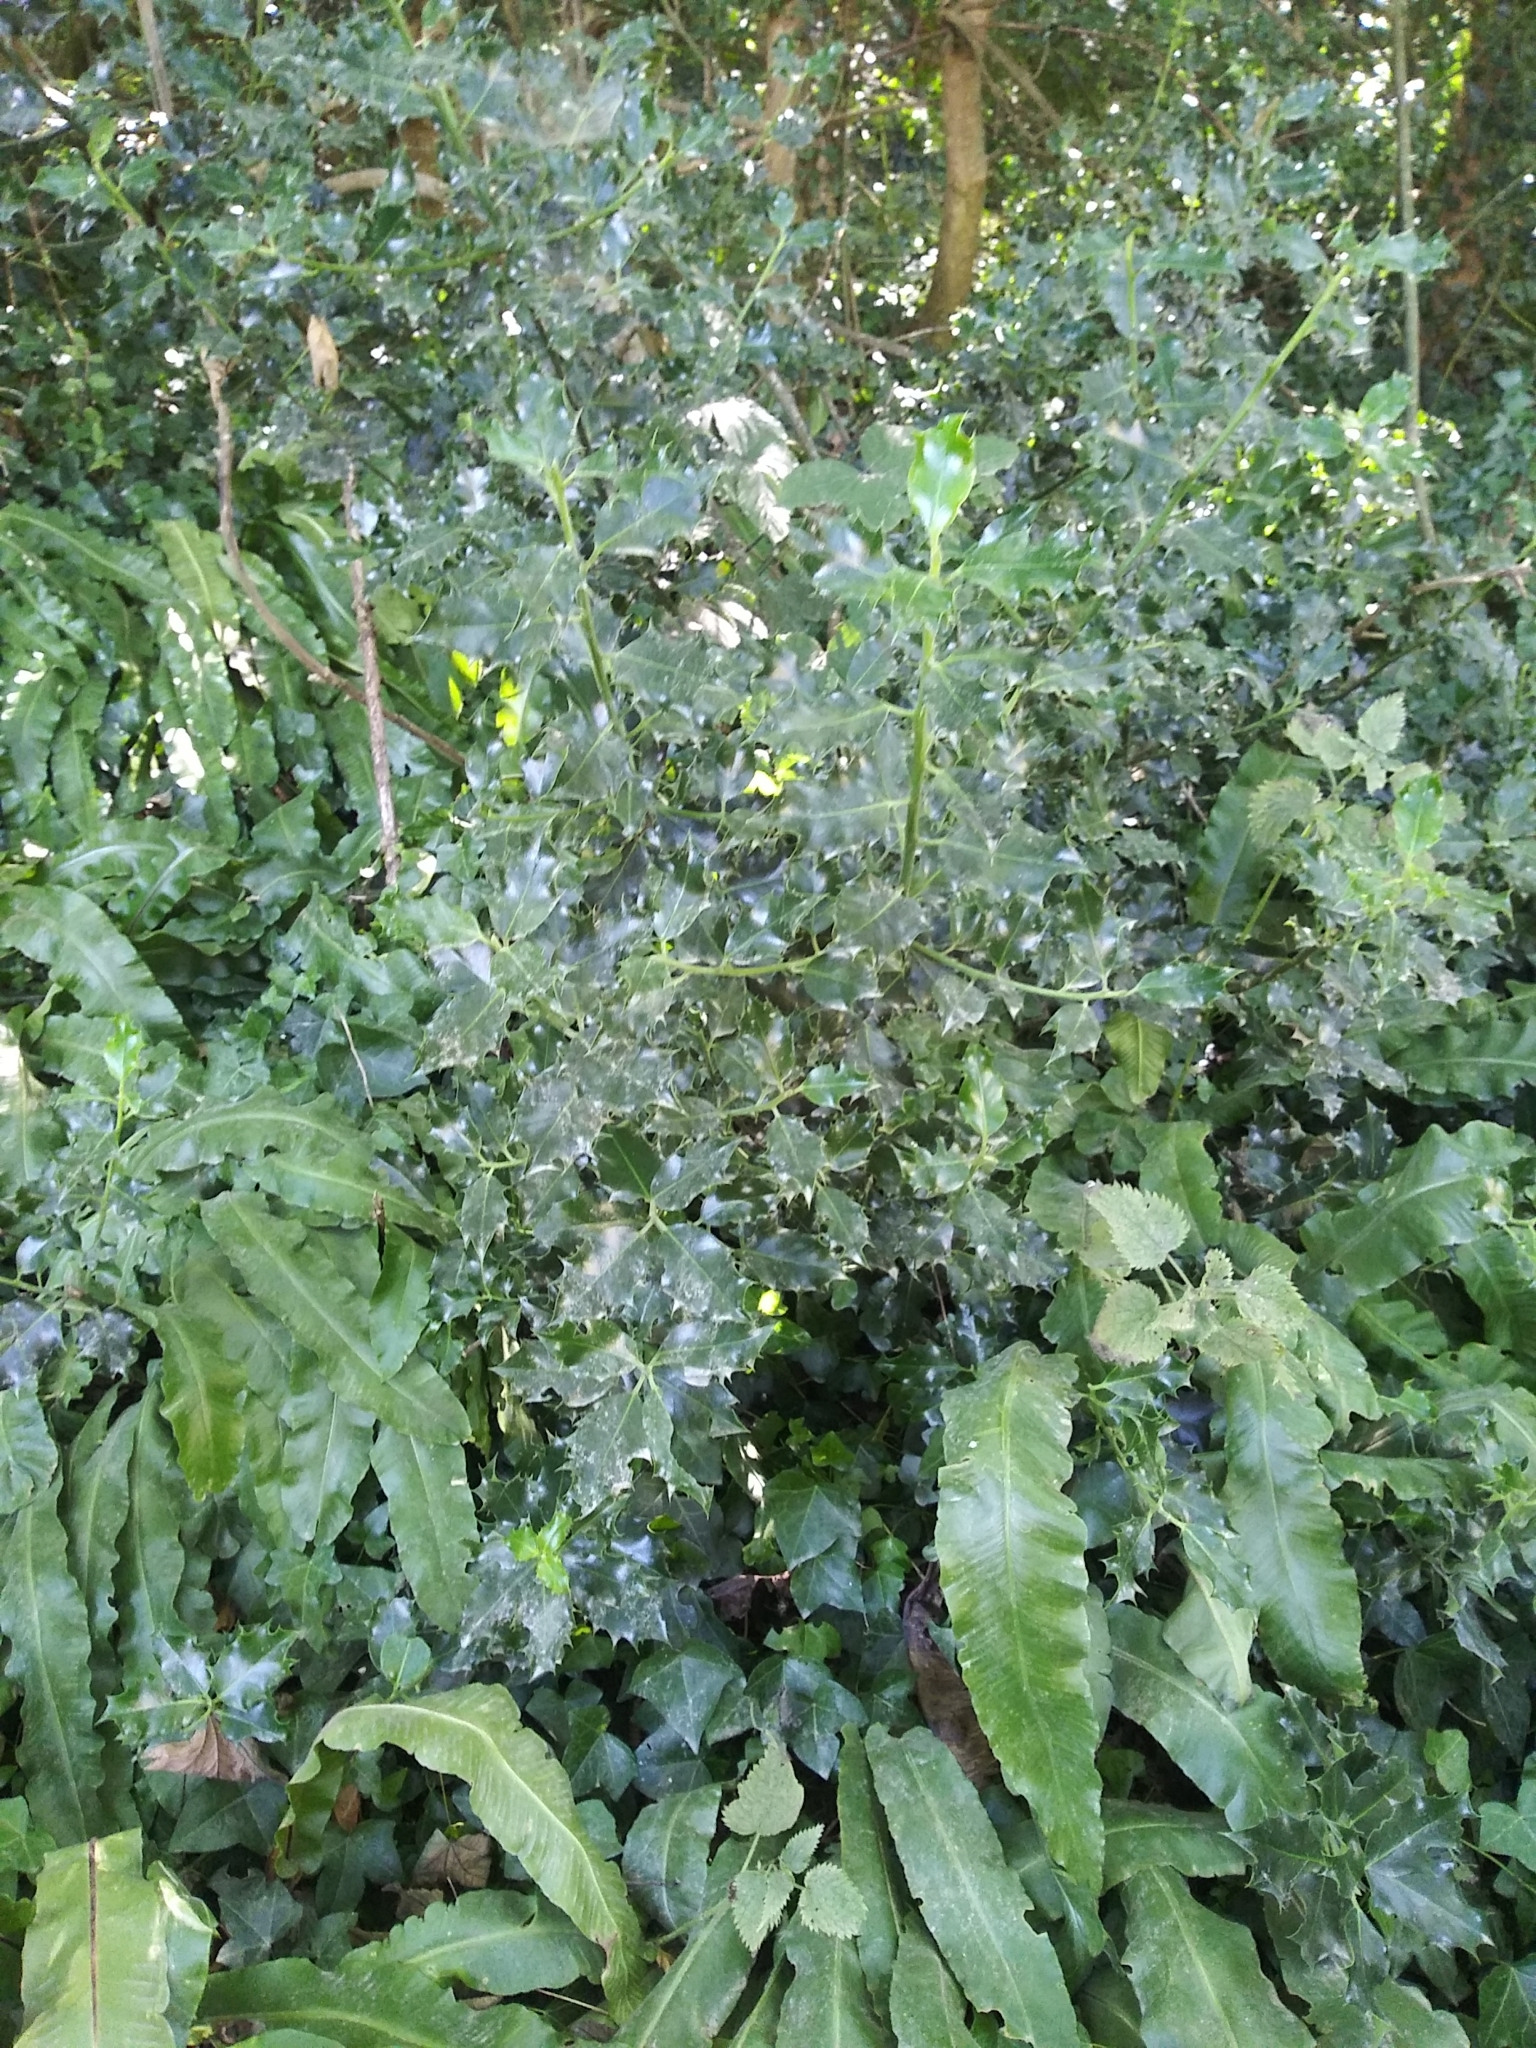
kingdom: Plantae
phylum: Tracheophyta
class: Magnoliopsida
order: Aquifoliales
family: Aquifoliaceae
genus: Ilex
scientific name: Ilex aquifolium
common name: English holly
